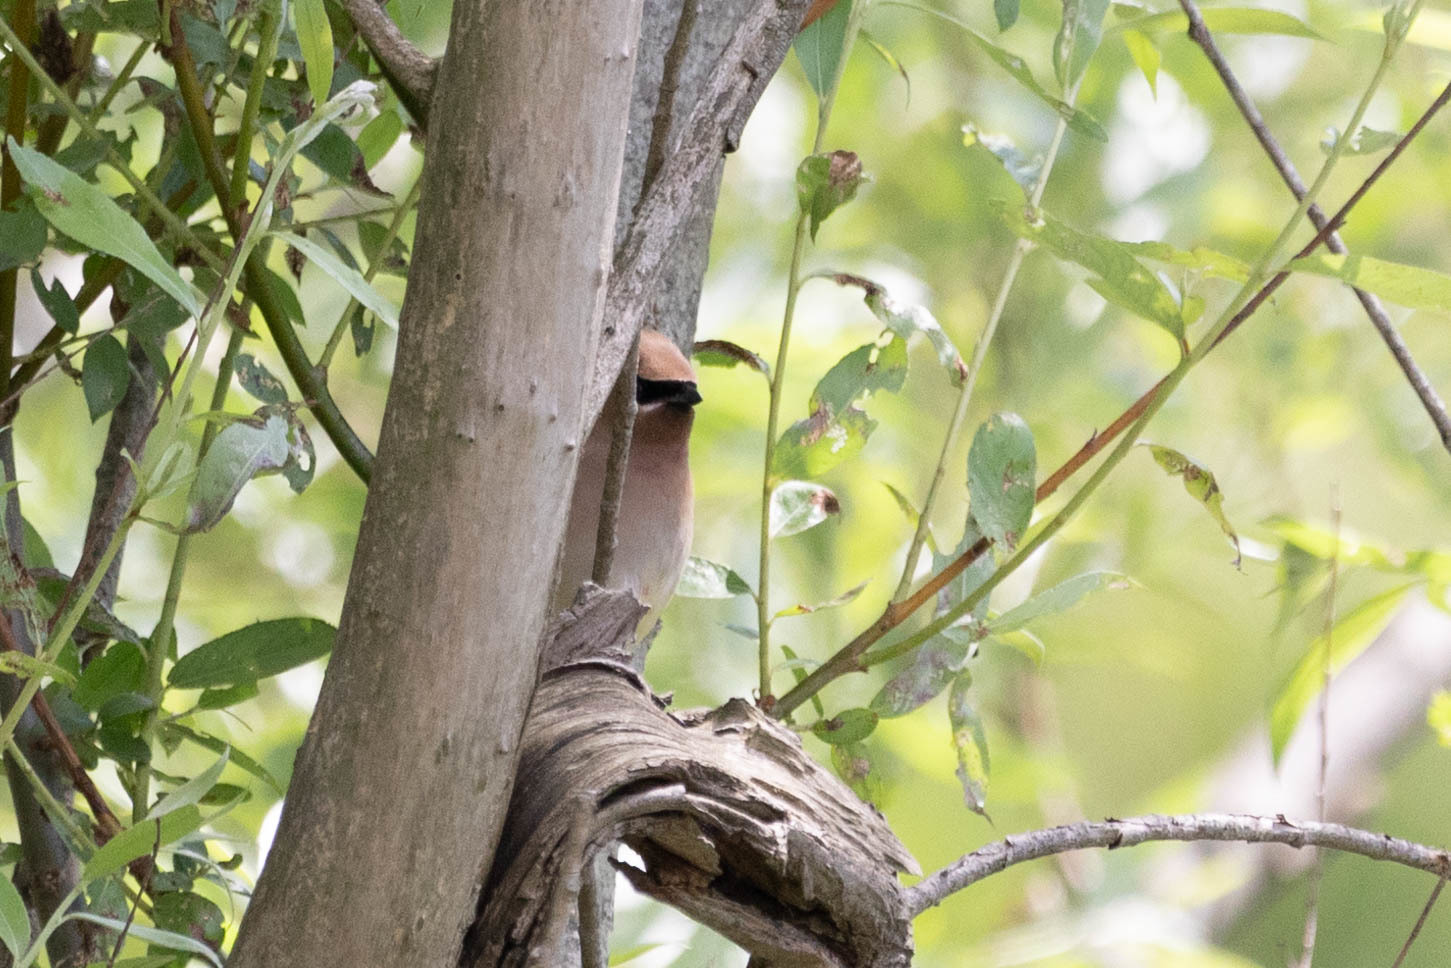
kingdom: Animalia
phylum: Chordata
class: Aves
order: Passeriformes
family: Bombycillidae
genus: Bombycilla
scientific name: Bombycilla cedrorum
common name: Cedar waxwing
